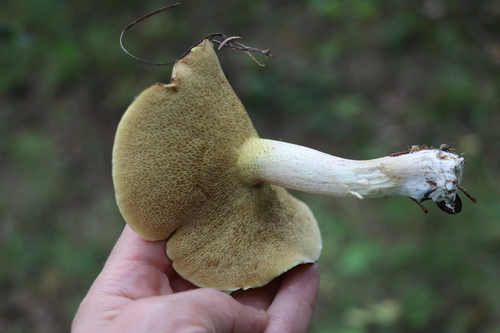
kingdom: Fungi
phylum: Basidiomycota
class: Agaricomycetes
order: Boletales
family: Suillaceae
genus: Suillus
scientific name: Suillus placidus
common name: Slippery white bolete
